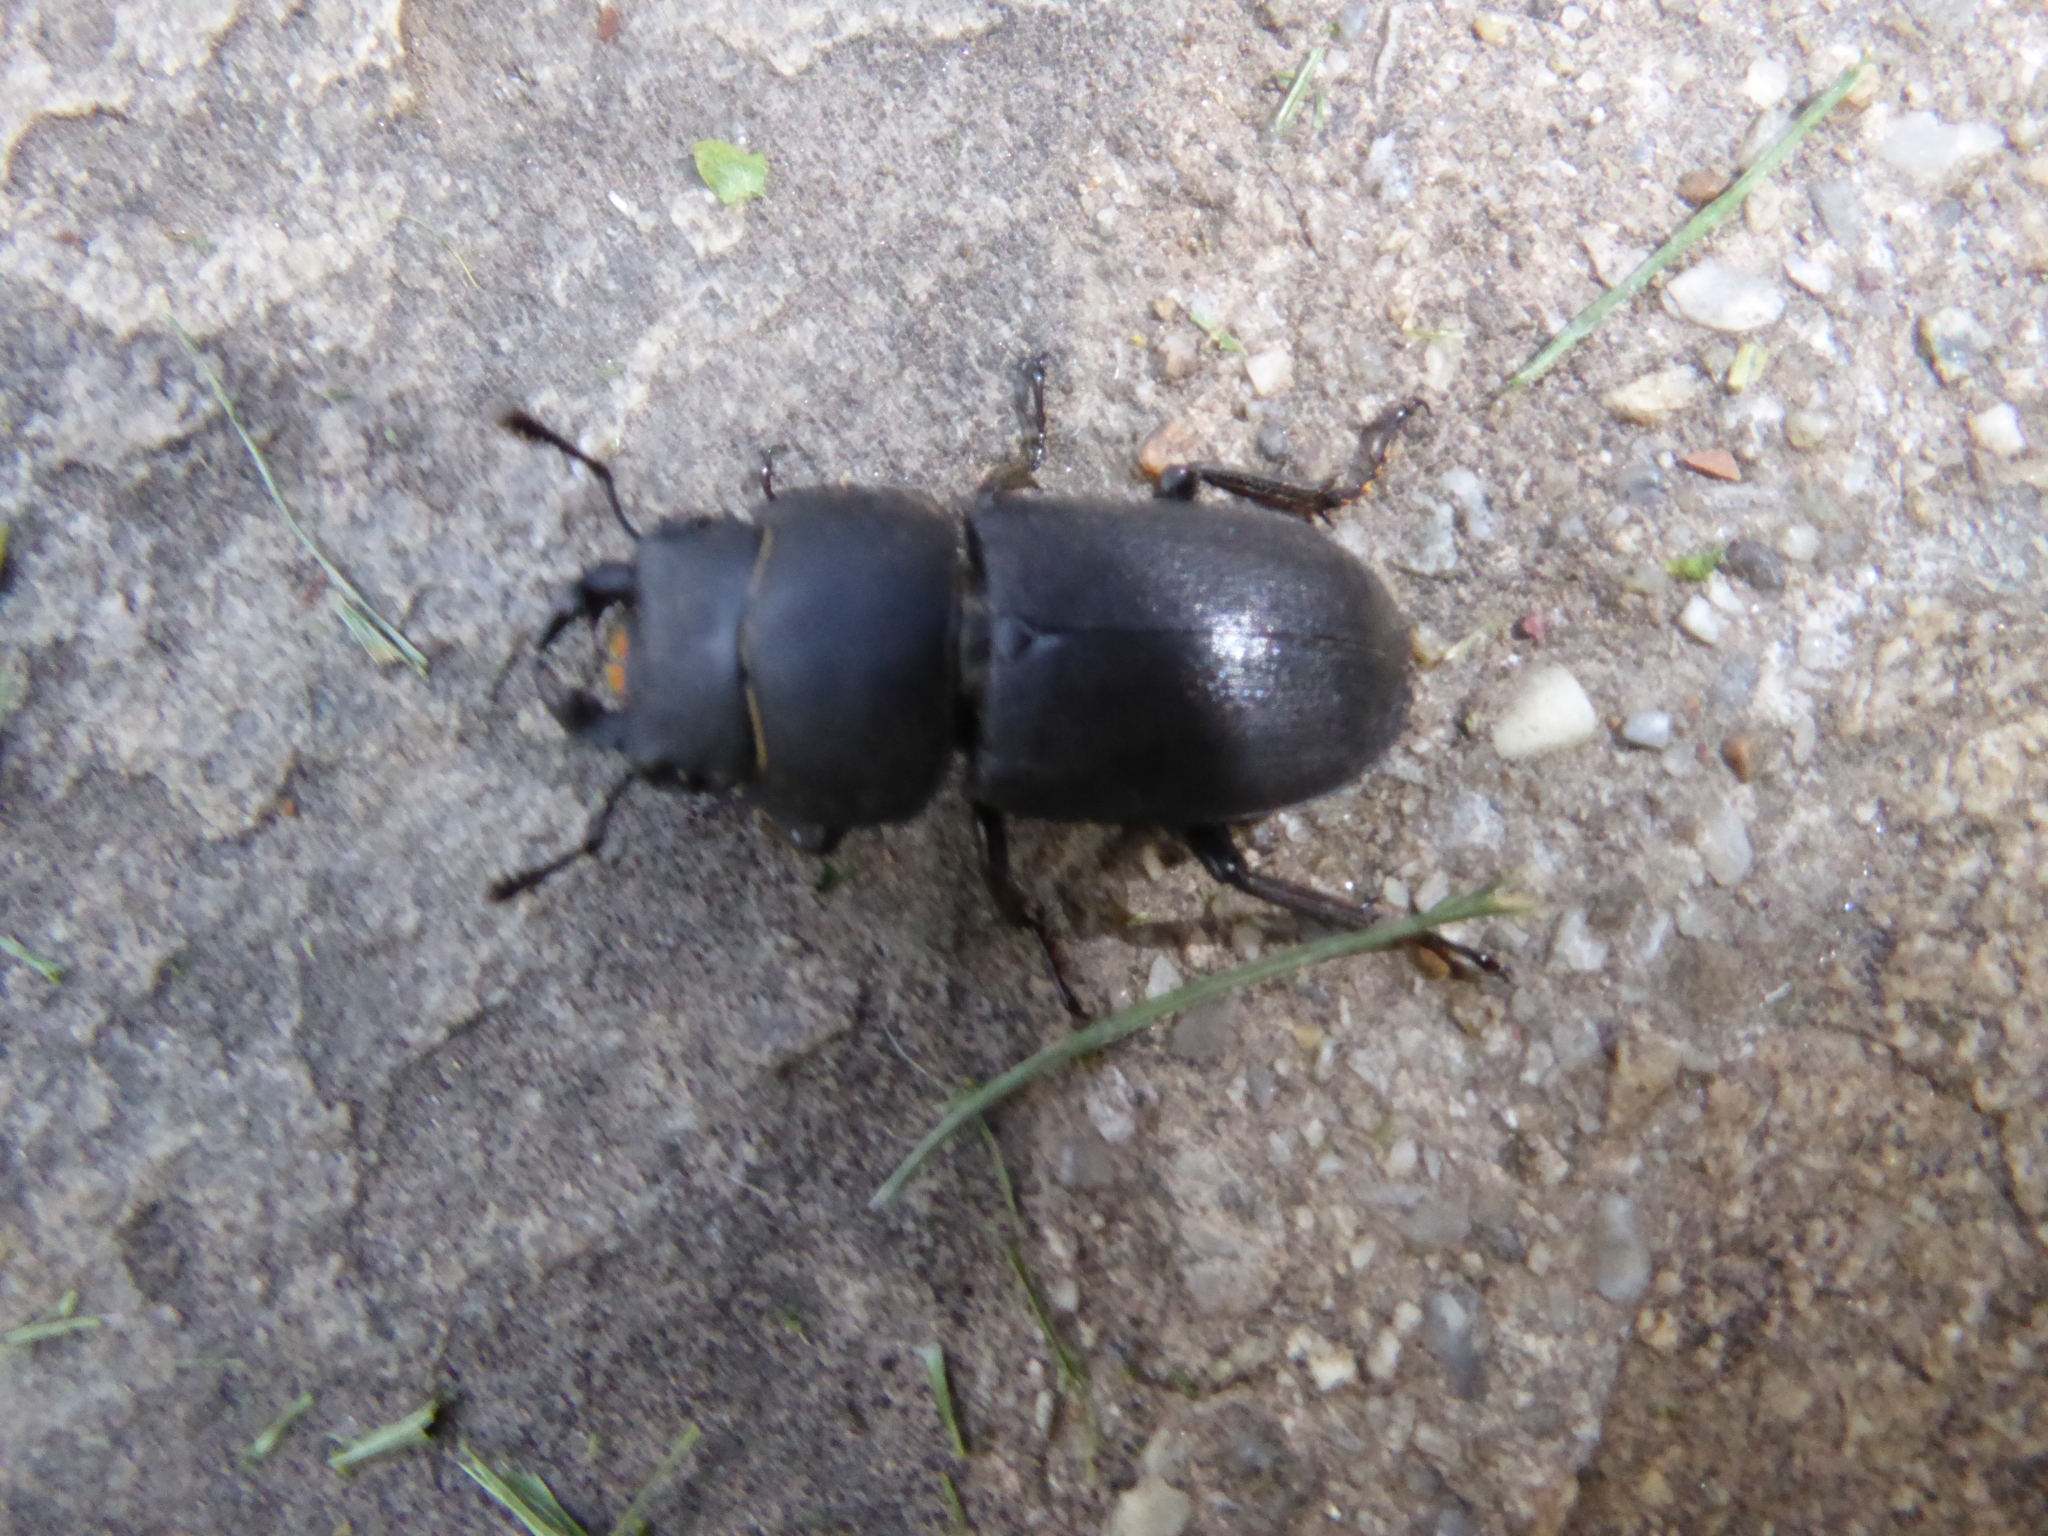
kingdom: Animalia
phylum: Arthropoda
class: Insecta
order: Coleoptera
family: Lucanidae
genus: Dorcus
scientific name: Dorcus parallelipipedus
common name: Lesser stag beetle
